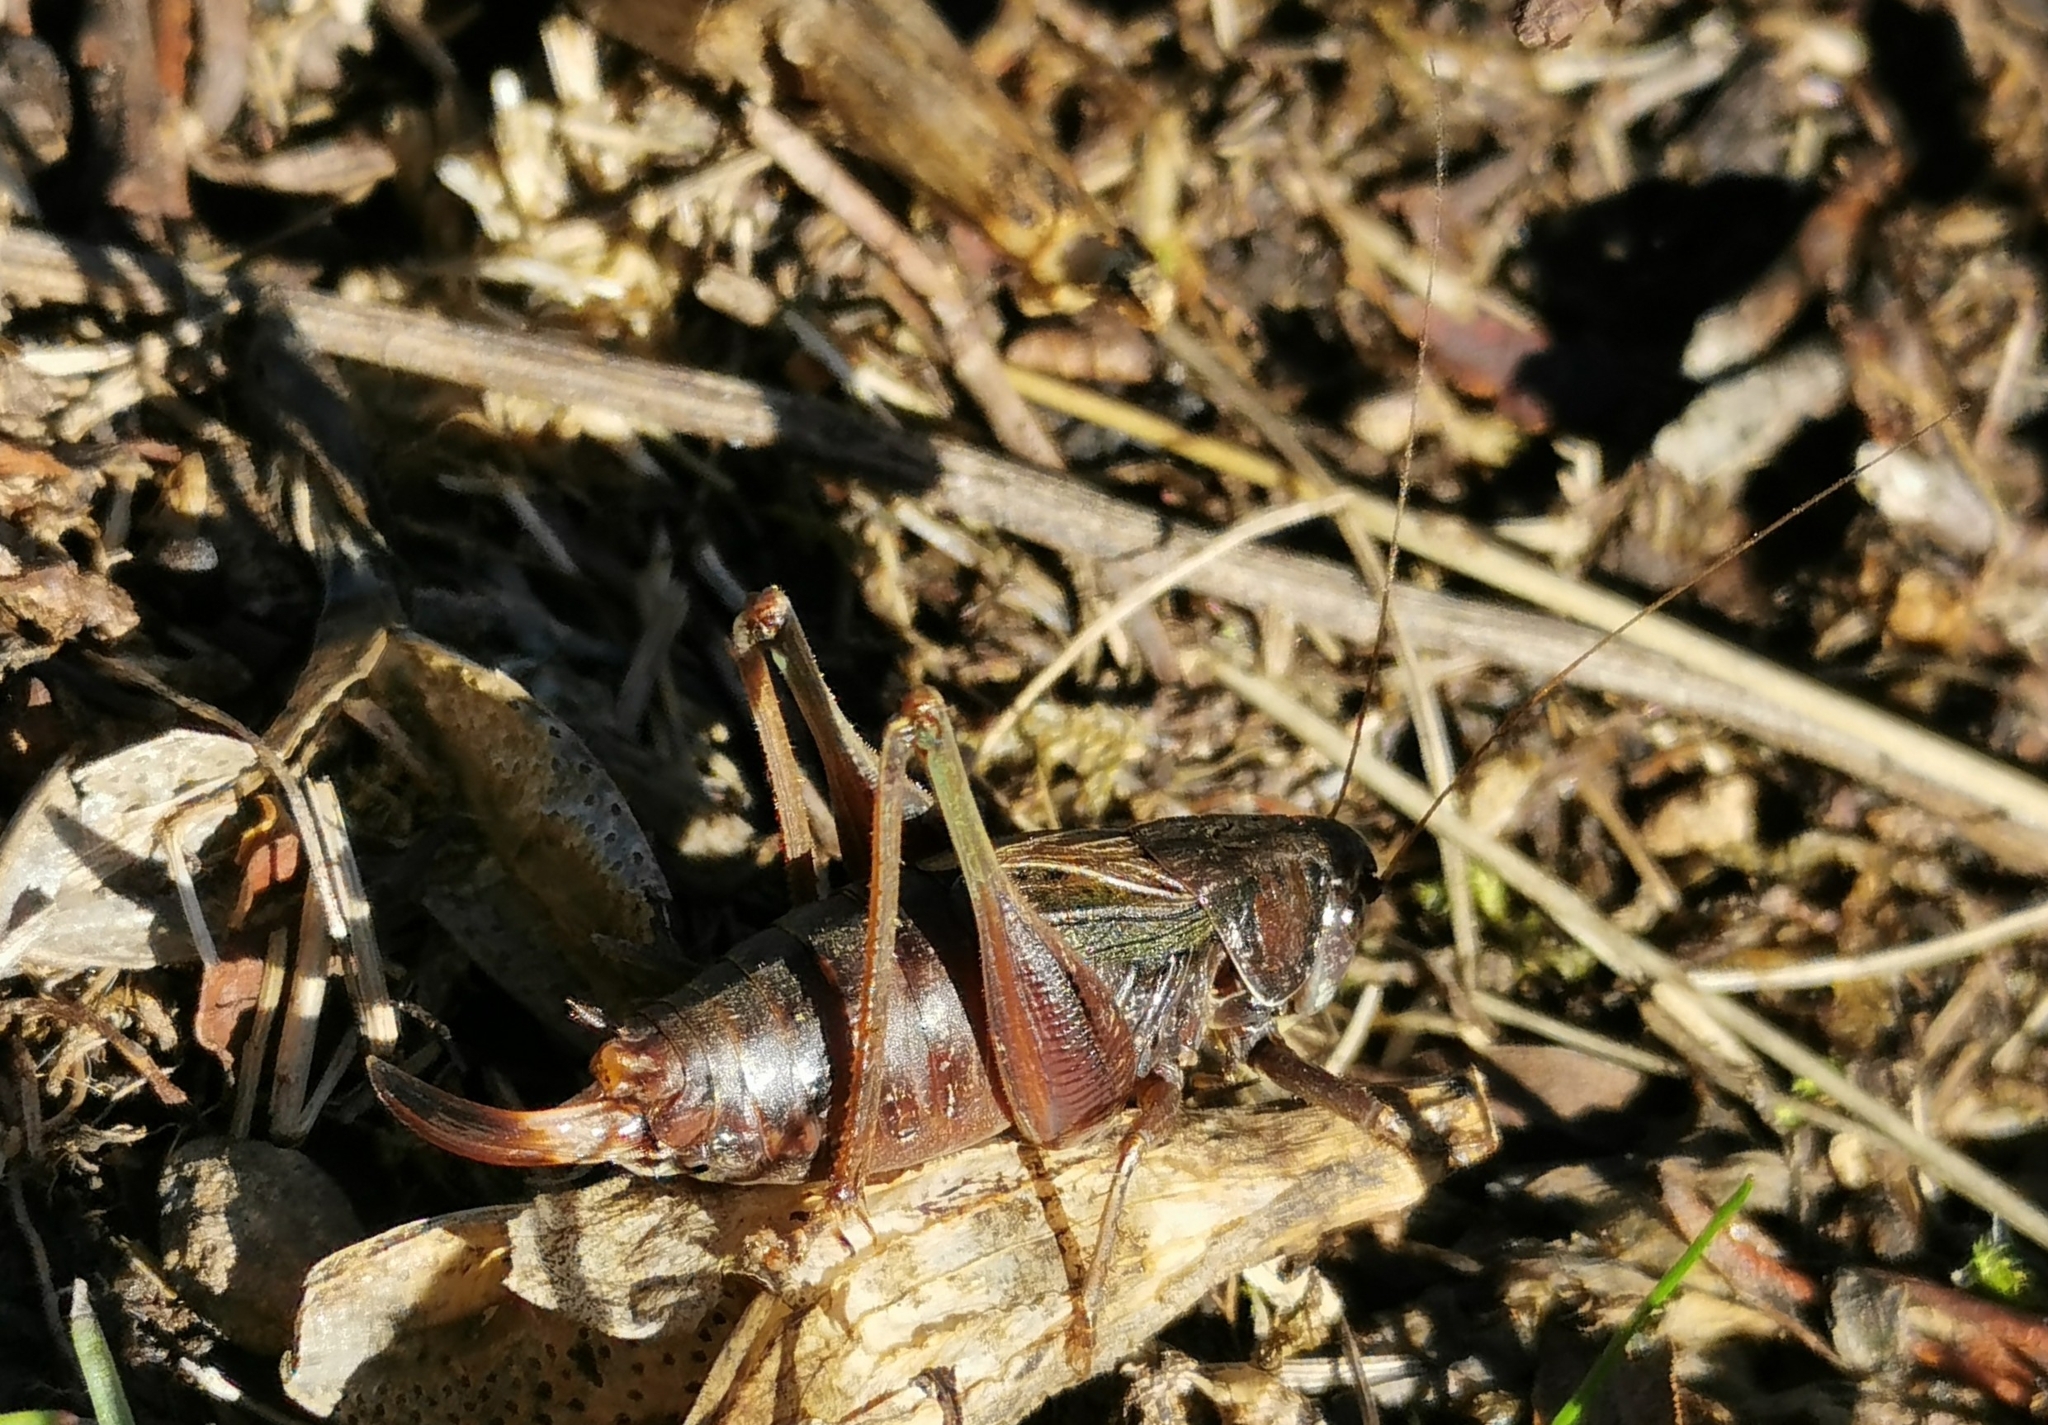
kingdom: Animalia
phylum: Arthropoda
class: Insecta
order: Orthoptera
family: Tettigoniidae
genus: Metrioptera
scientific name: Metrioptera saussuriana
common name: Purple meadow bush-cricket
